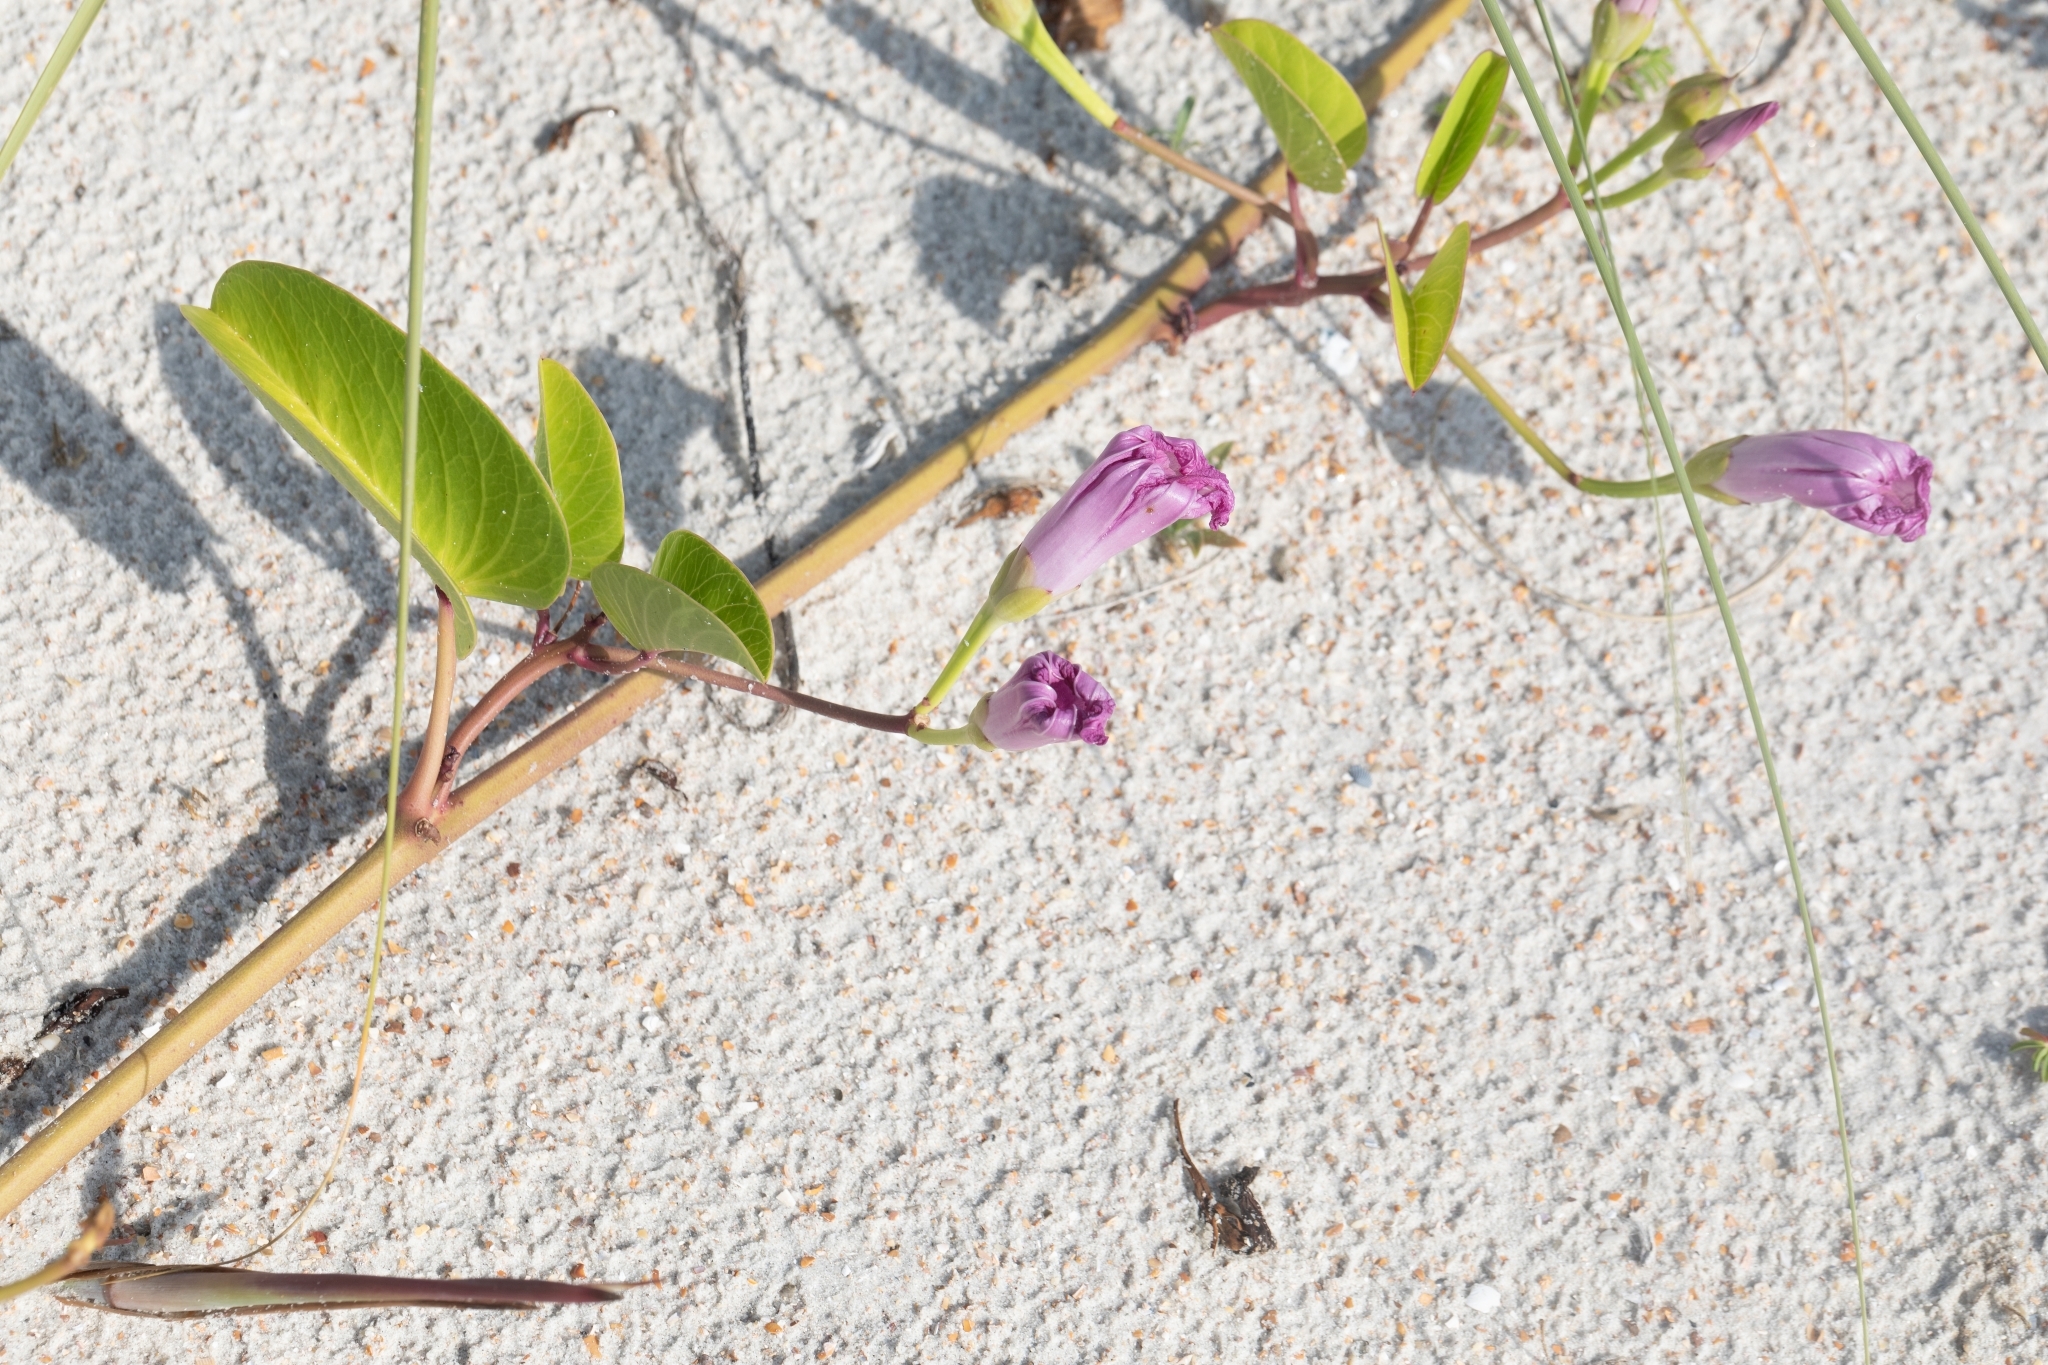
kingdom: Plantae
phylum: Tracheophyta
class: Magnoliopsida
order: Solanales
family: Convolvulaceae
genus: Ipomoea
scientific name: Ipomoea pes-caprae
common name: Beach morning glory
